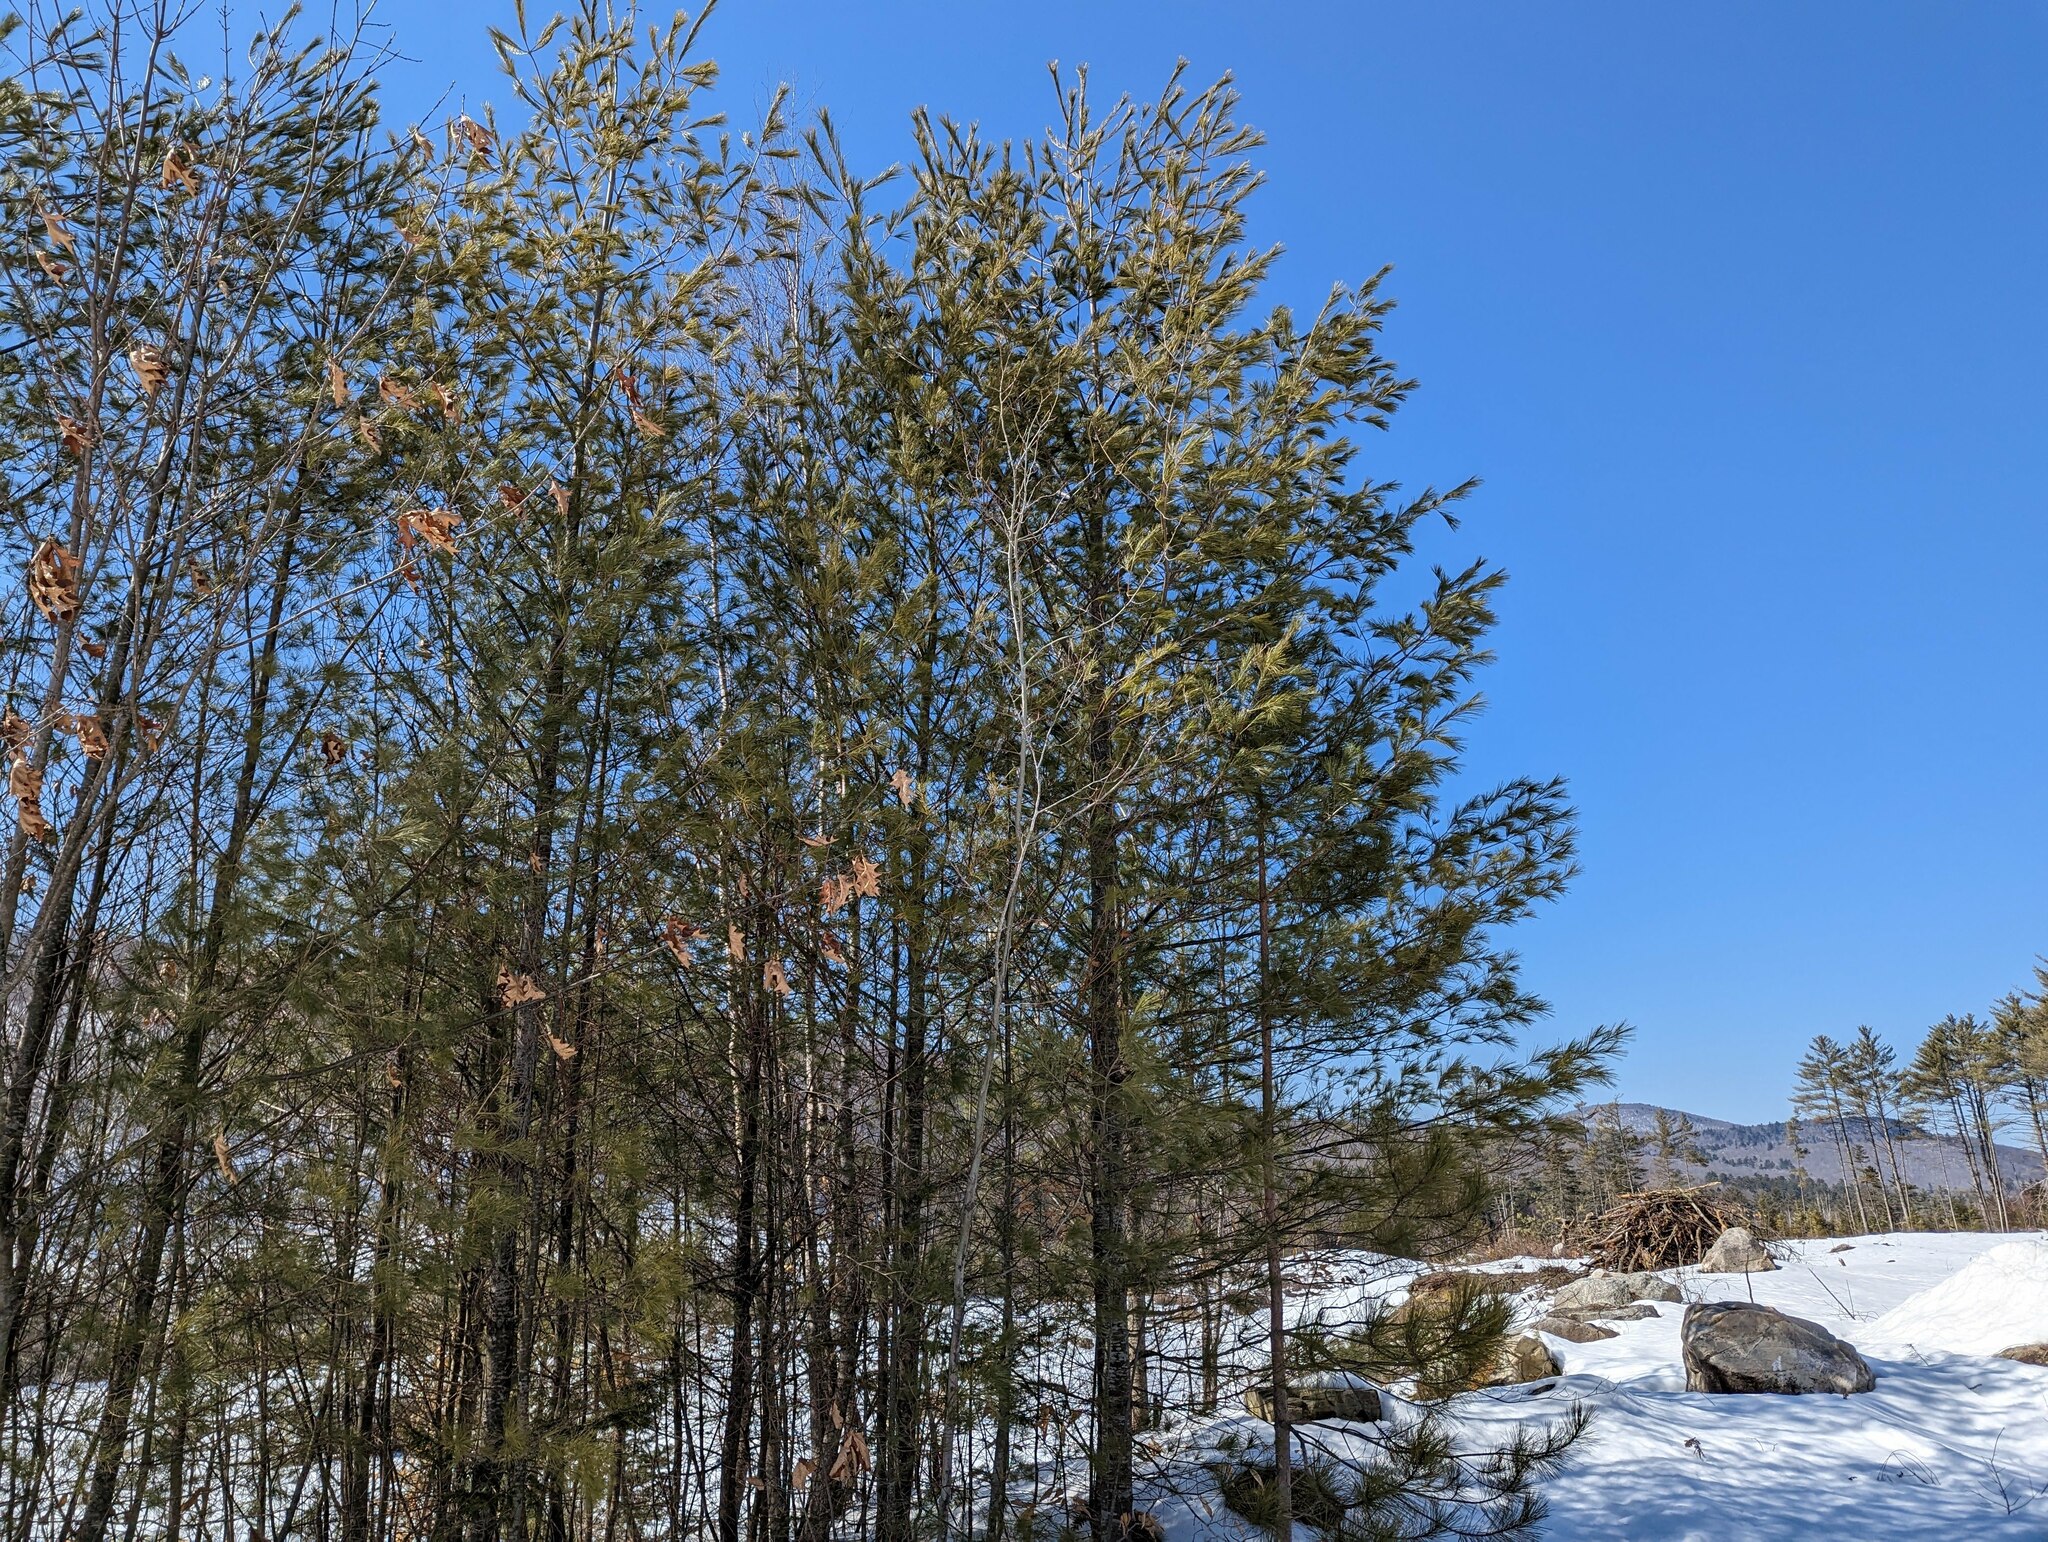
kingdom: Plantae
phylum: Tracheophyta
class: Pinopsida
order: Pinales
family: Pinaceae
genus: Pinus
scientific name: Pinus strobus
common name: Weymouth pine
